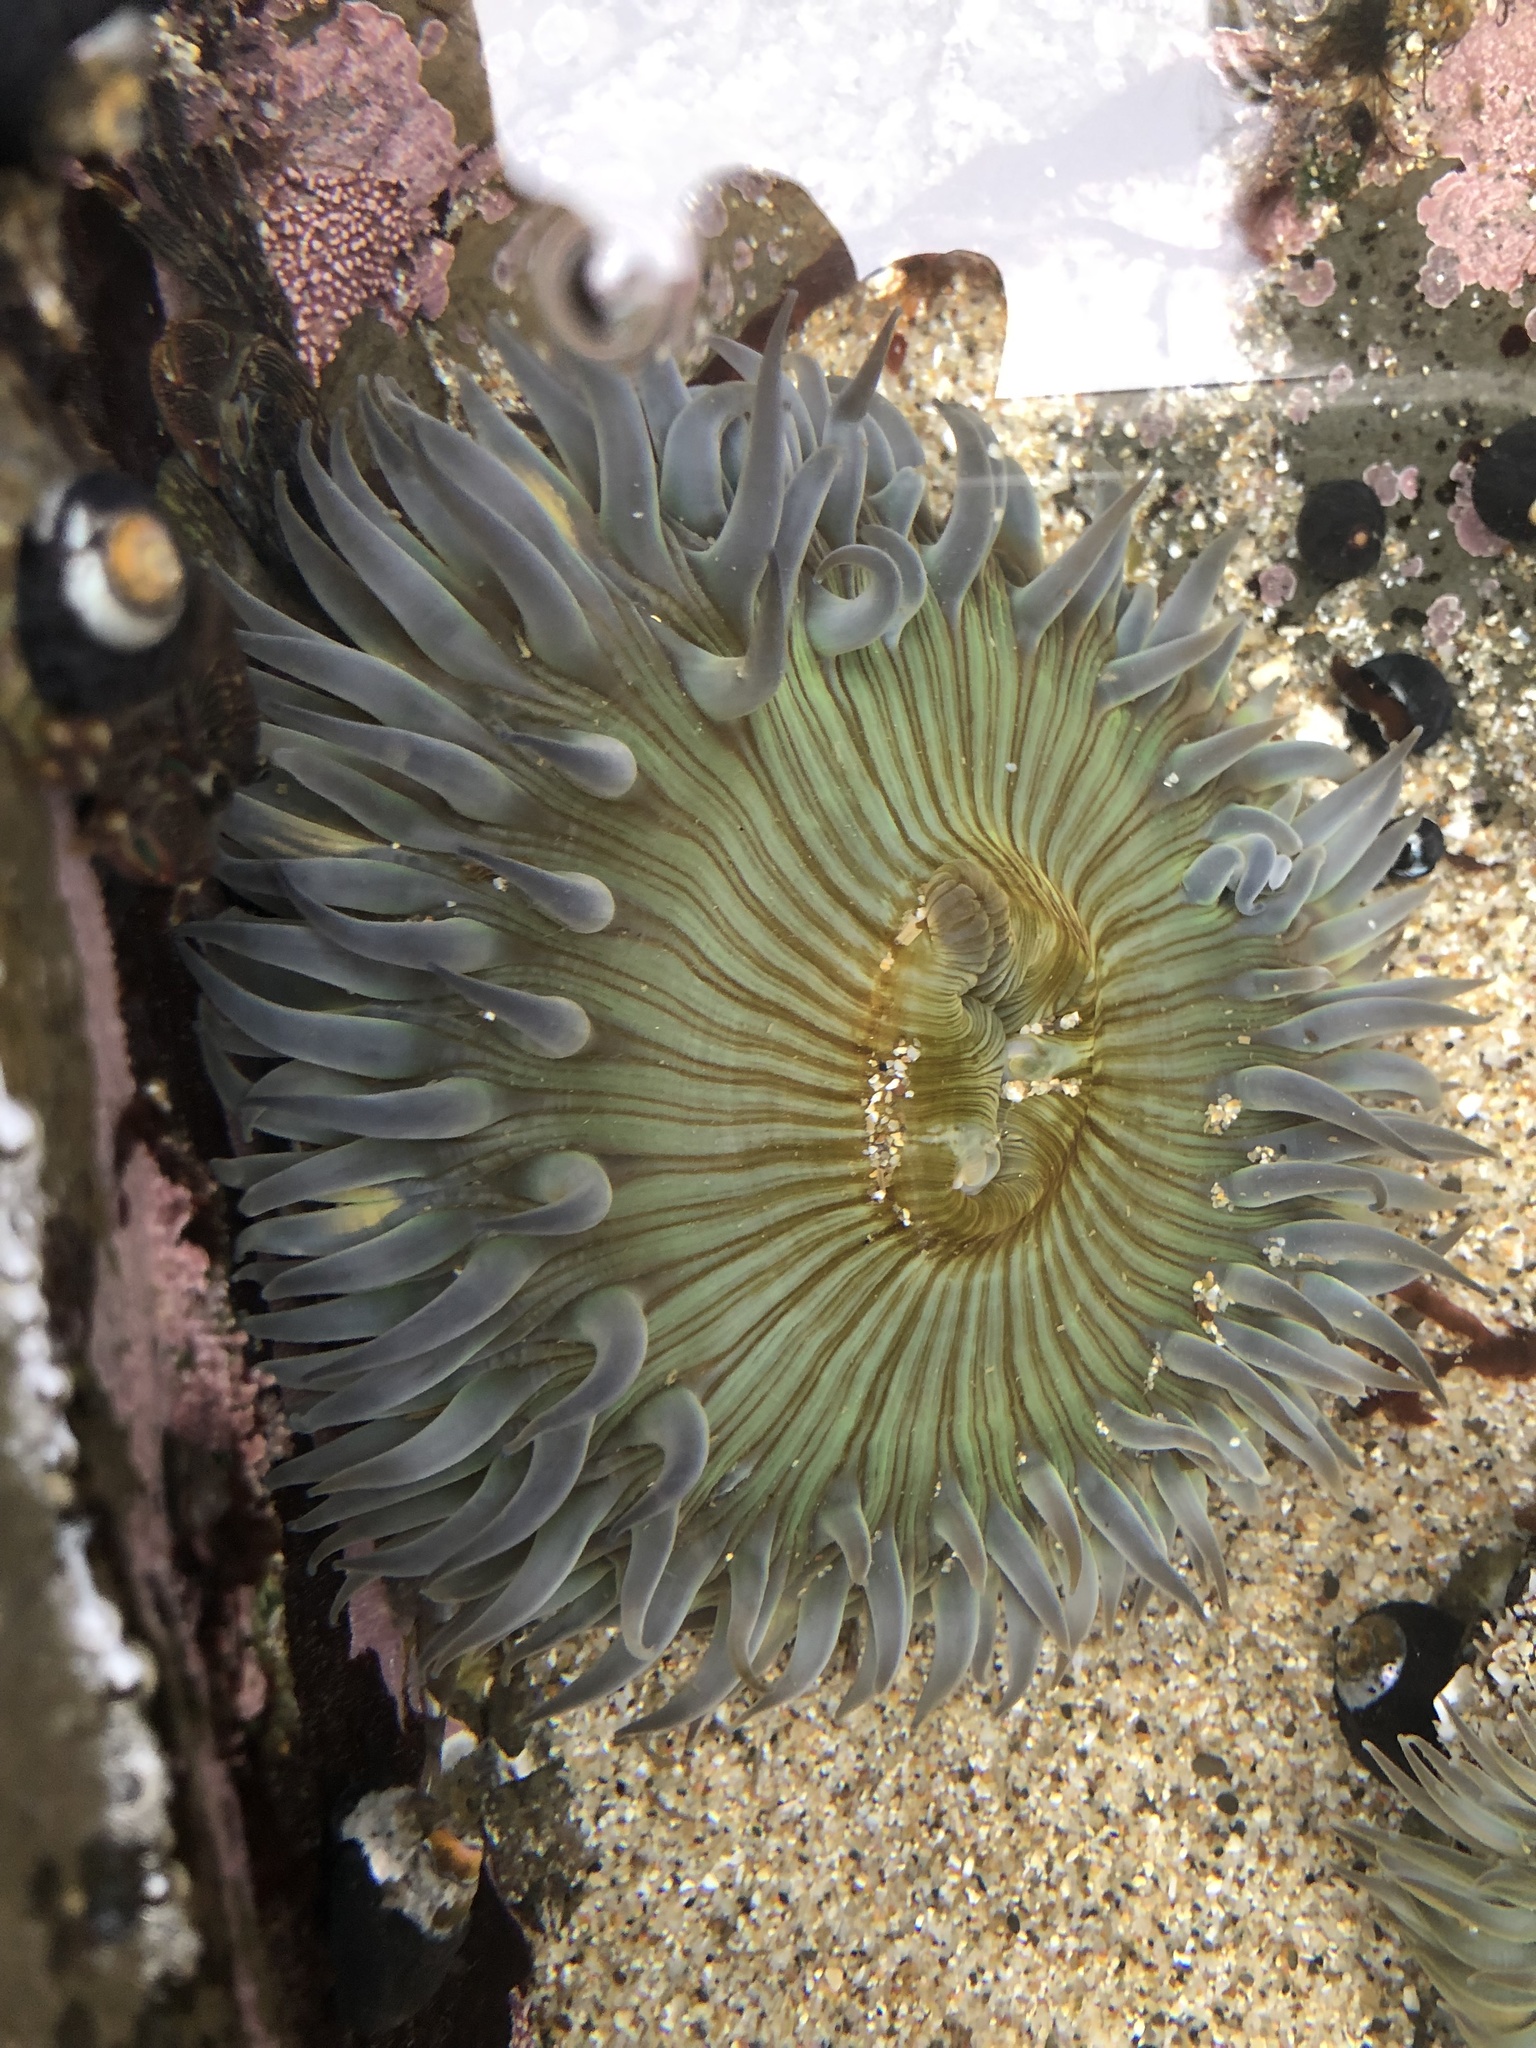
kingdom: Animalia
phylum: Cnidaria
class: Anthozoa
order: Actiniaria
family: Actiniidae
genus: Anthopleura
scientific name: Anthopleura sola
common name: Sun anemone
